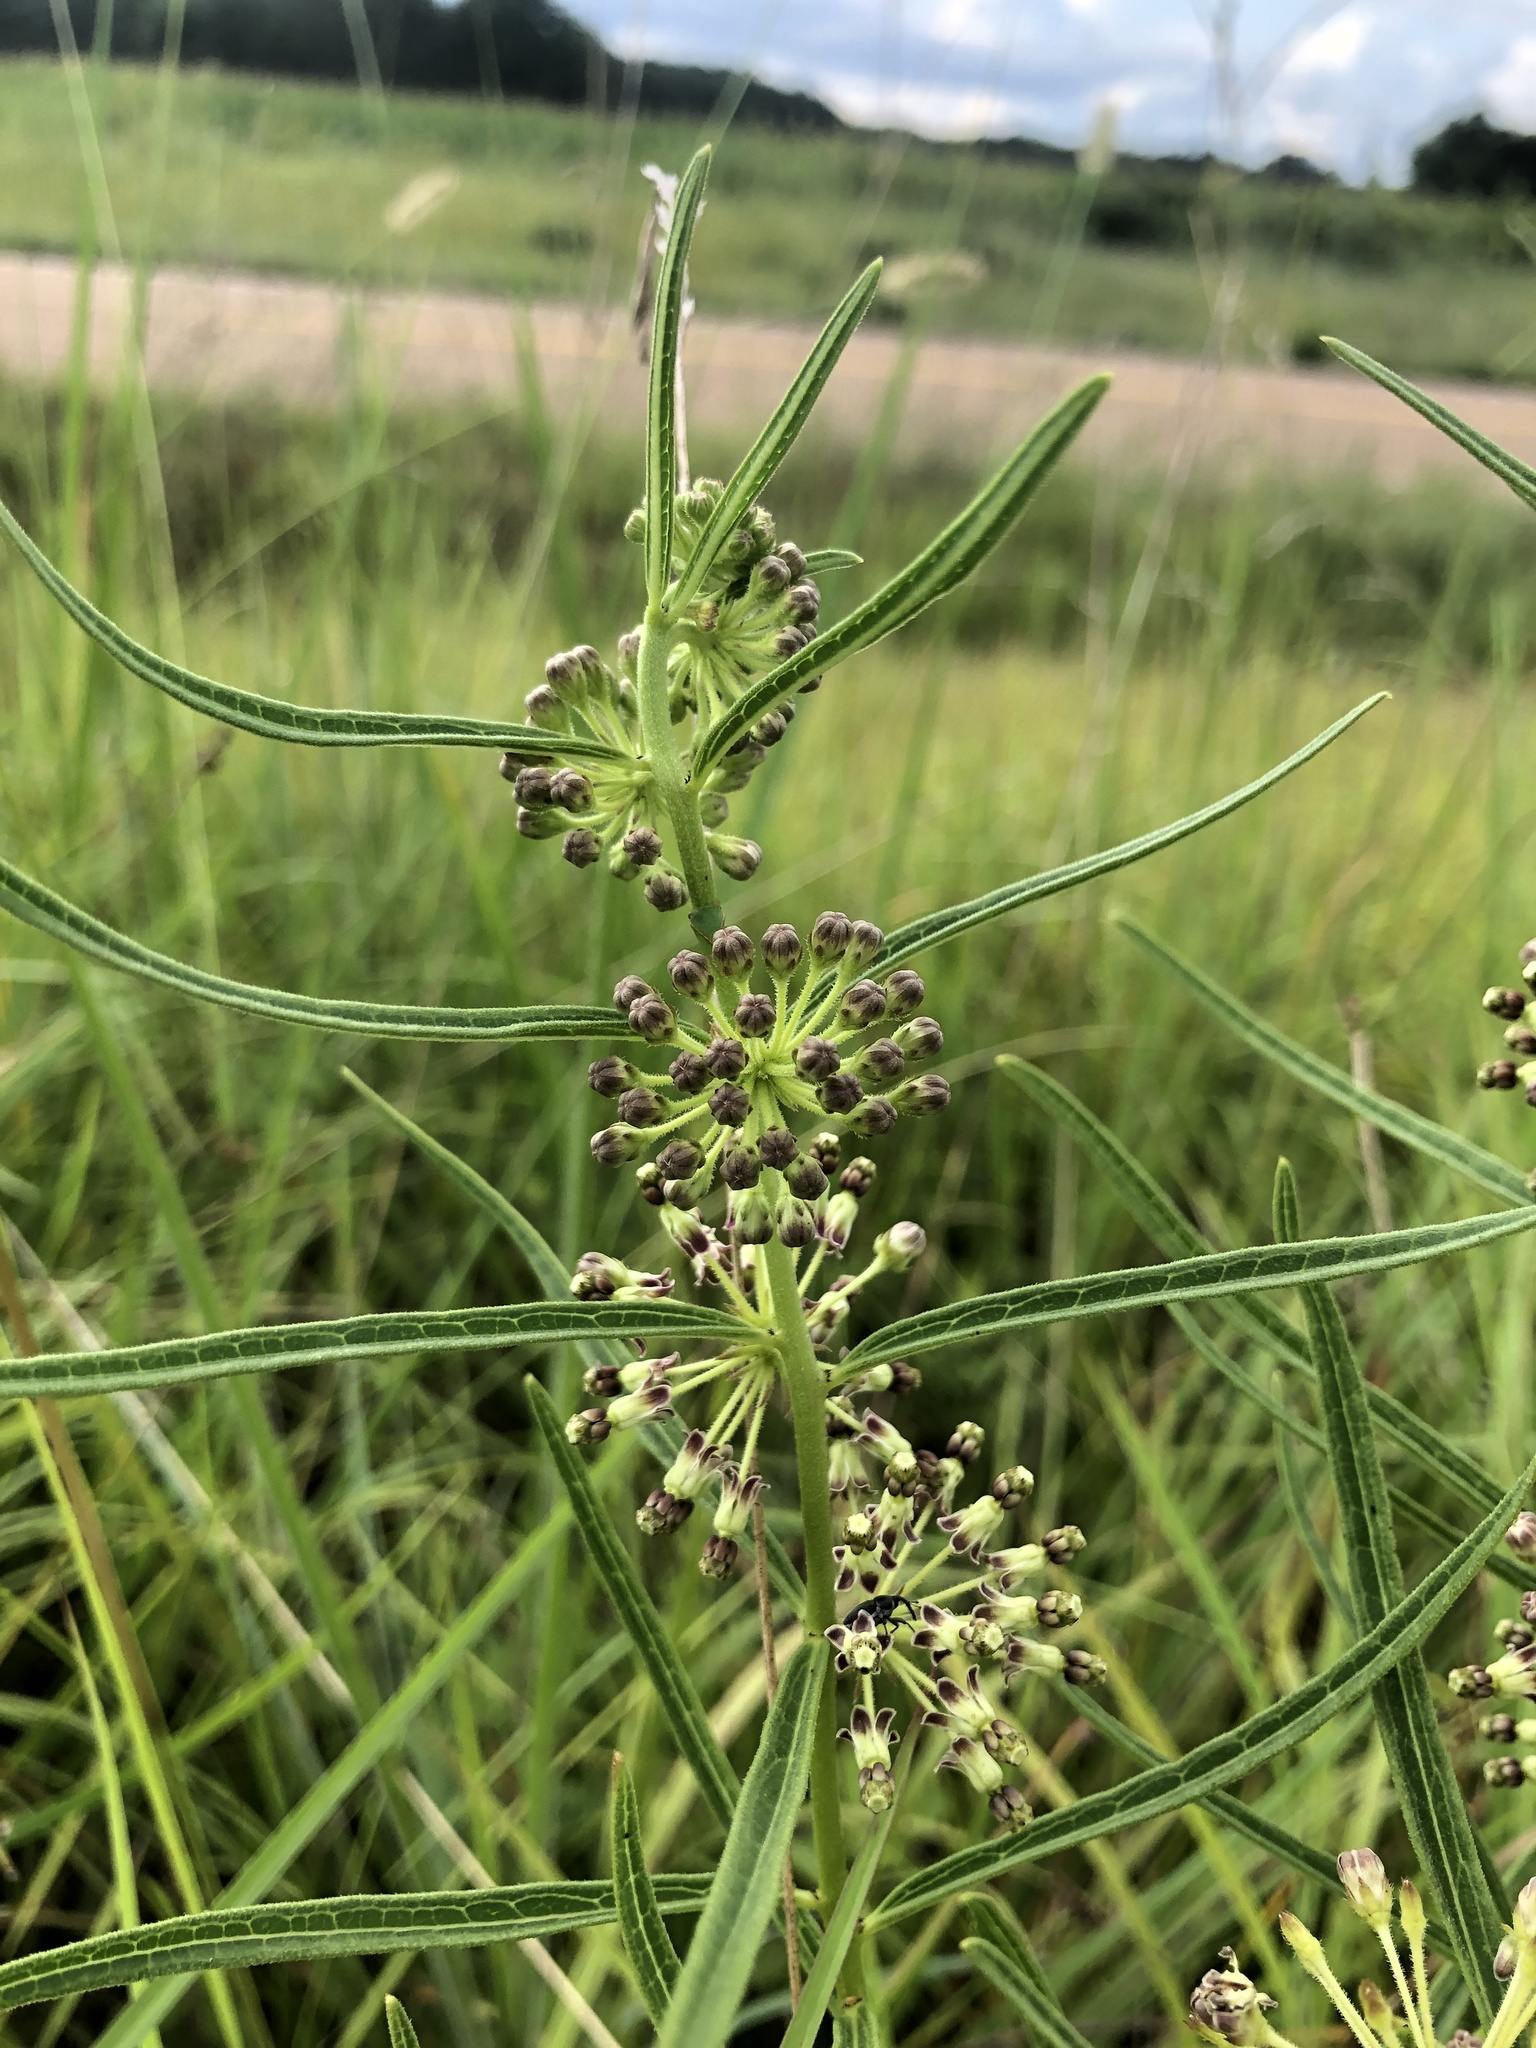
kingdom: Plantae
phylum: Tracheophyta
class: Magnoliopsida
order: Gentianales
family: Apocynaceae
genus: Asclepias
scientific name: Asclepias hirtella
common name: Prairie milkweed
